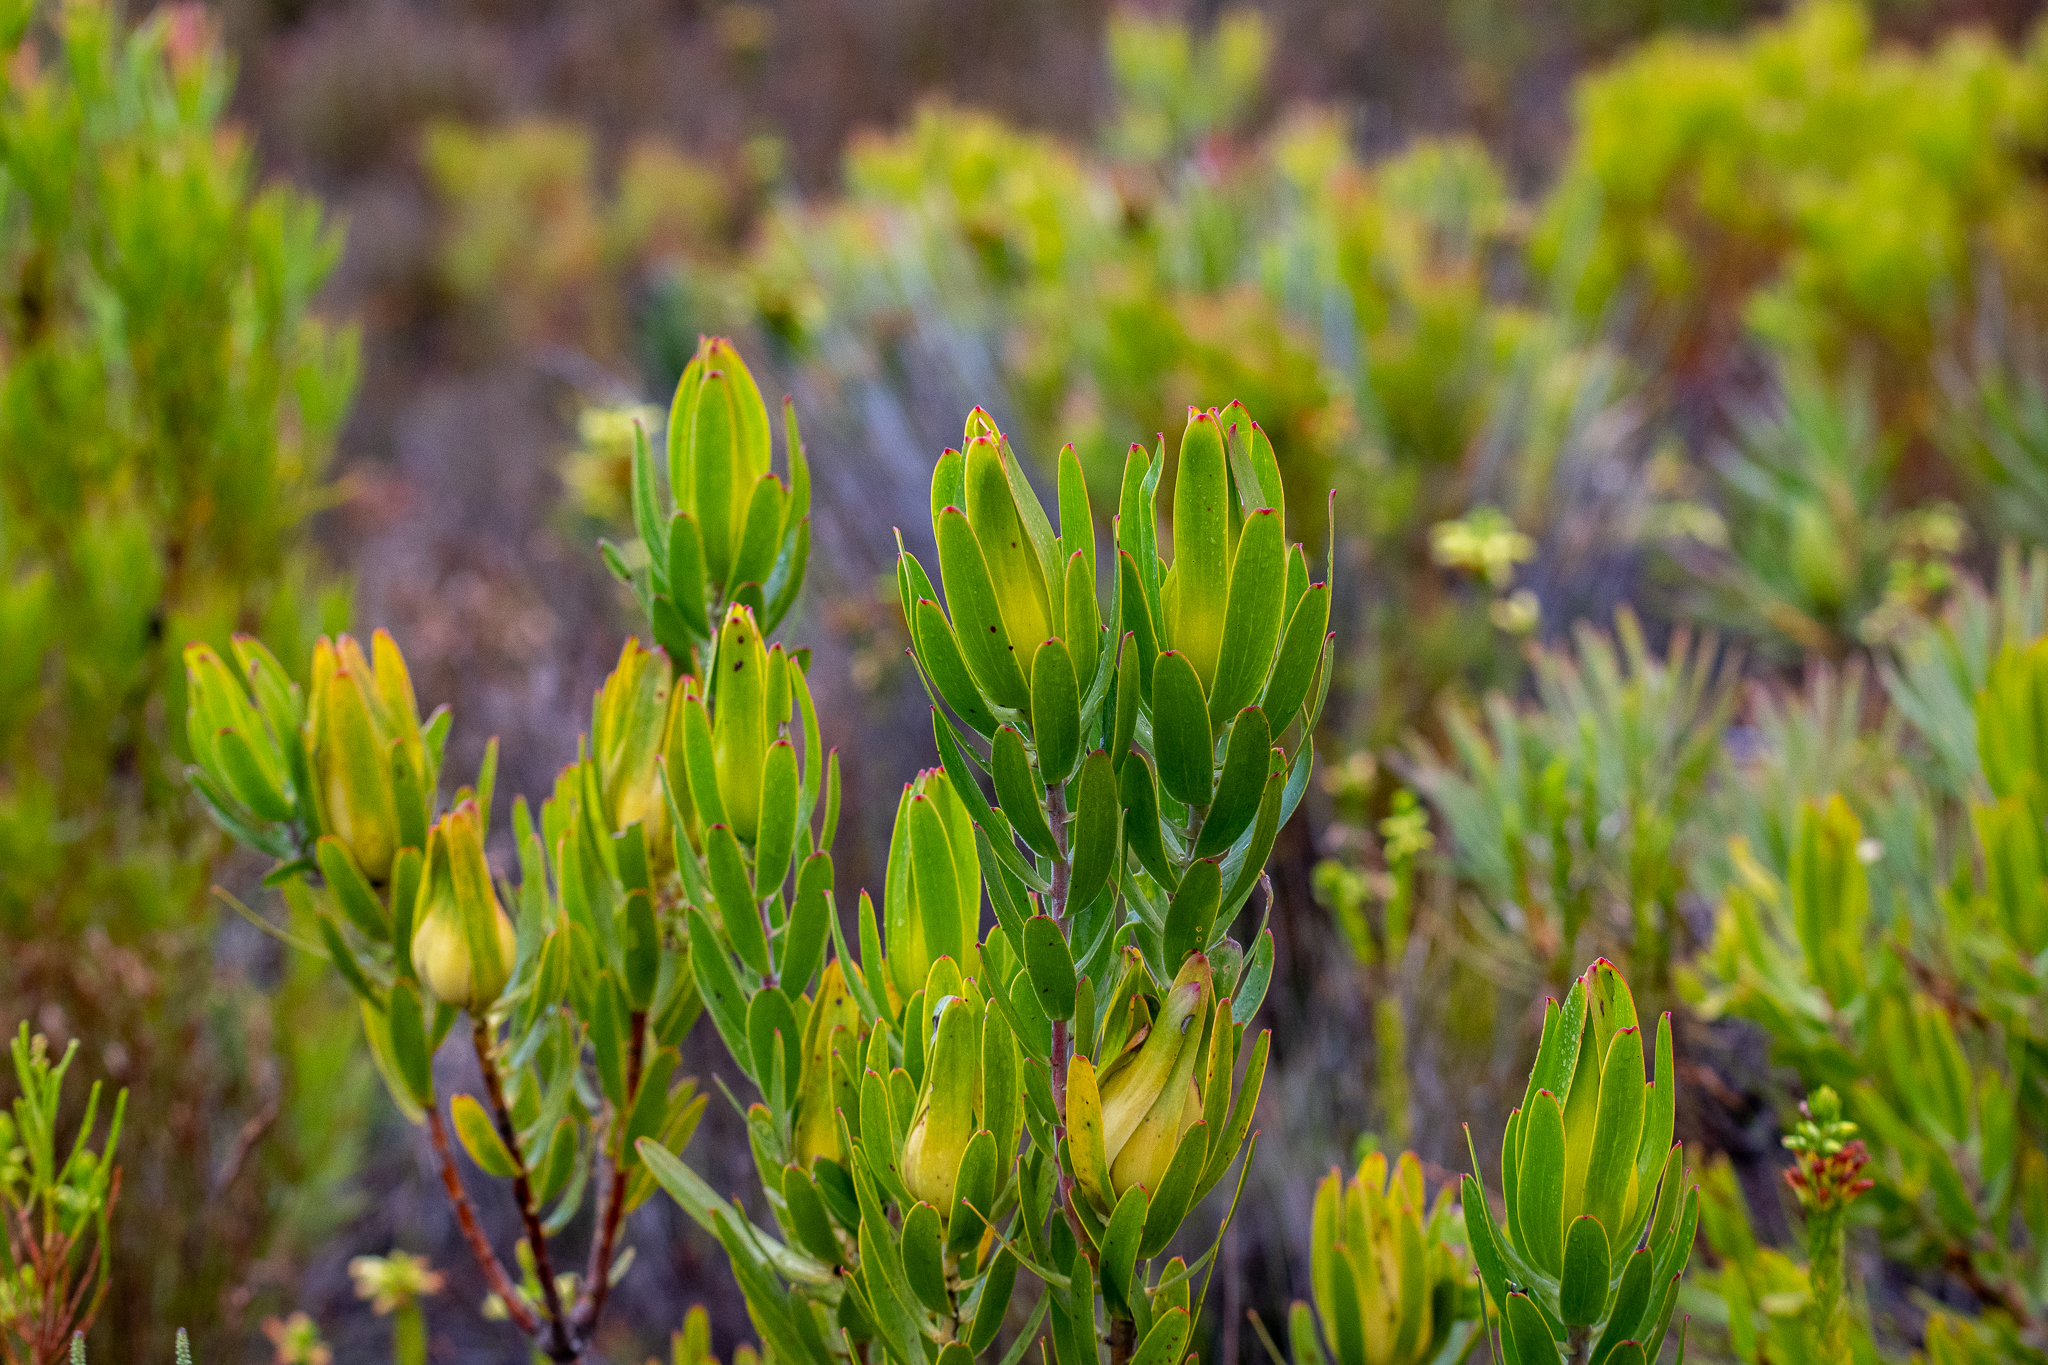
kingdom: Plantae
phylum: Tracheophyta
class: Magnoliopsida
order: Proteales
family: Proteaceae
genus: Leucadendron
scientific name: Leucadendron laureolum
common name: Golden sunshinebush
